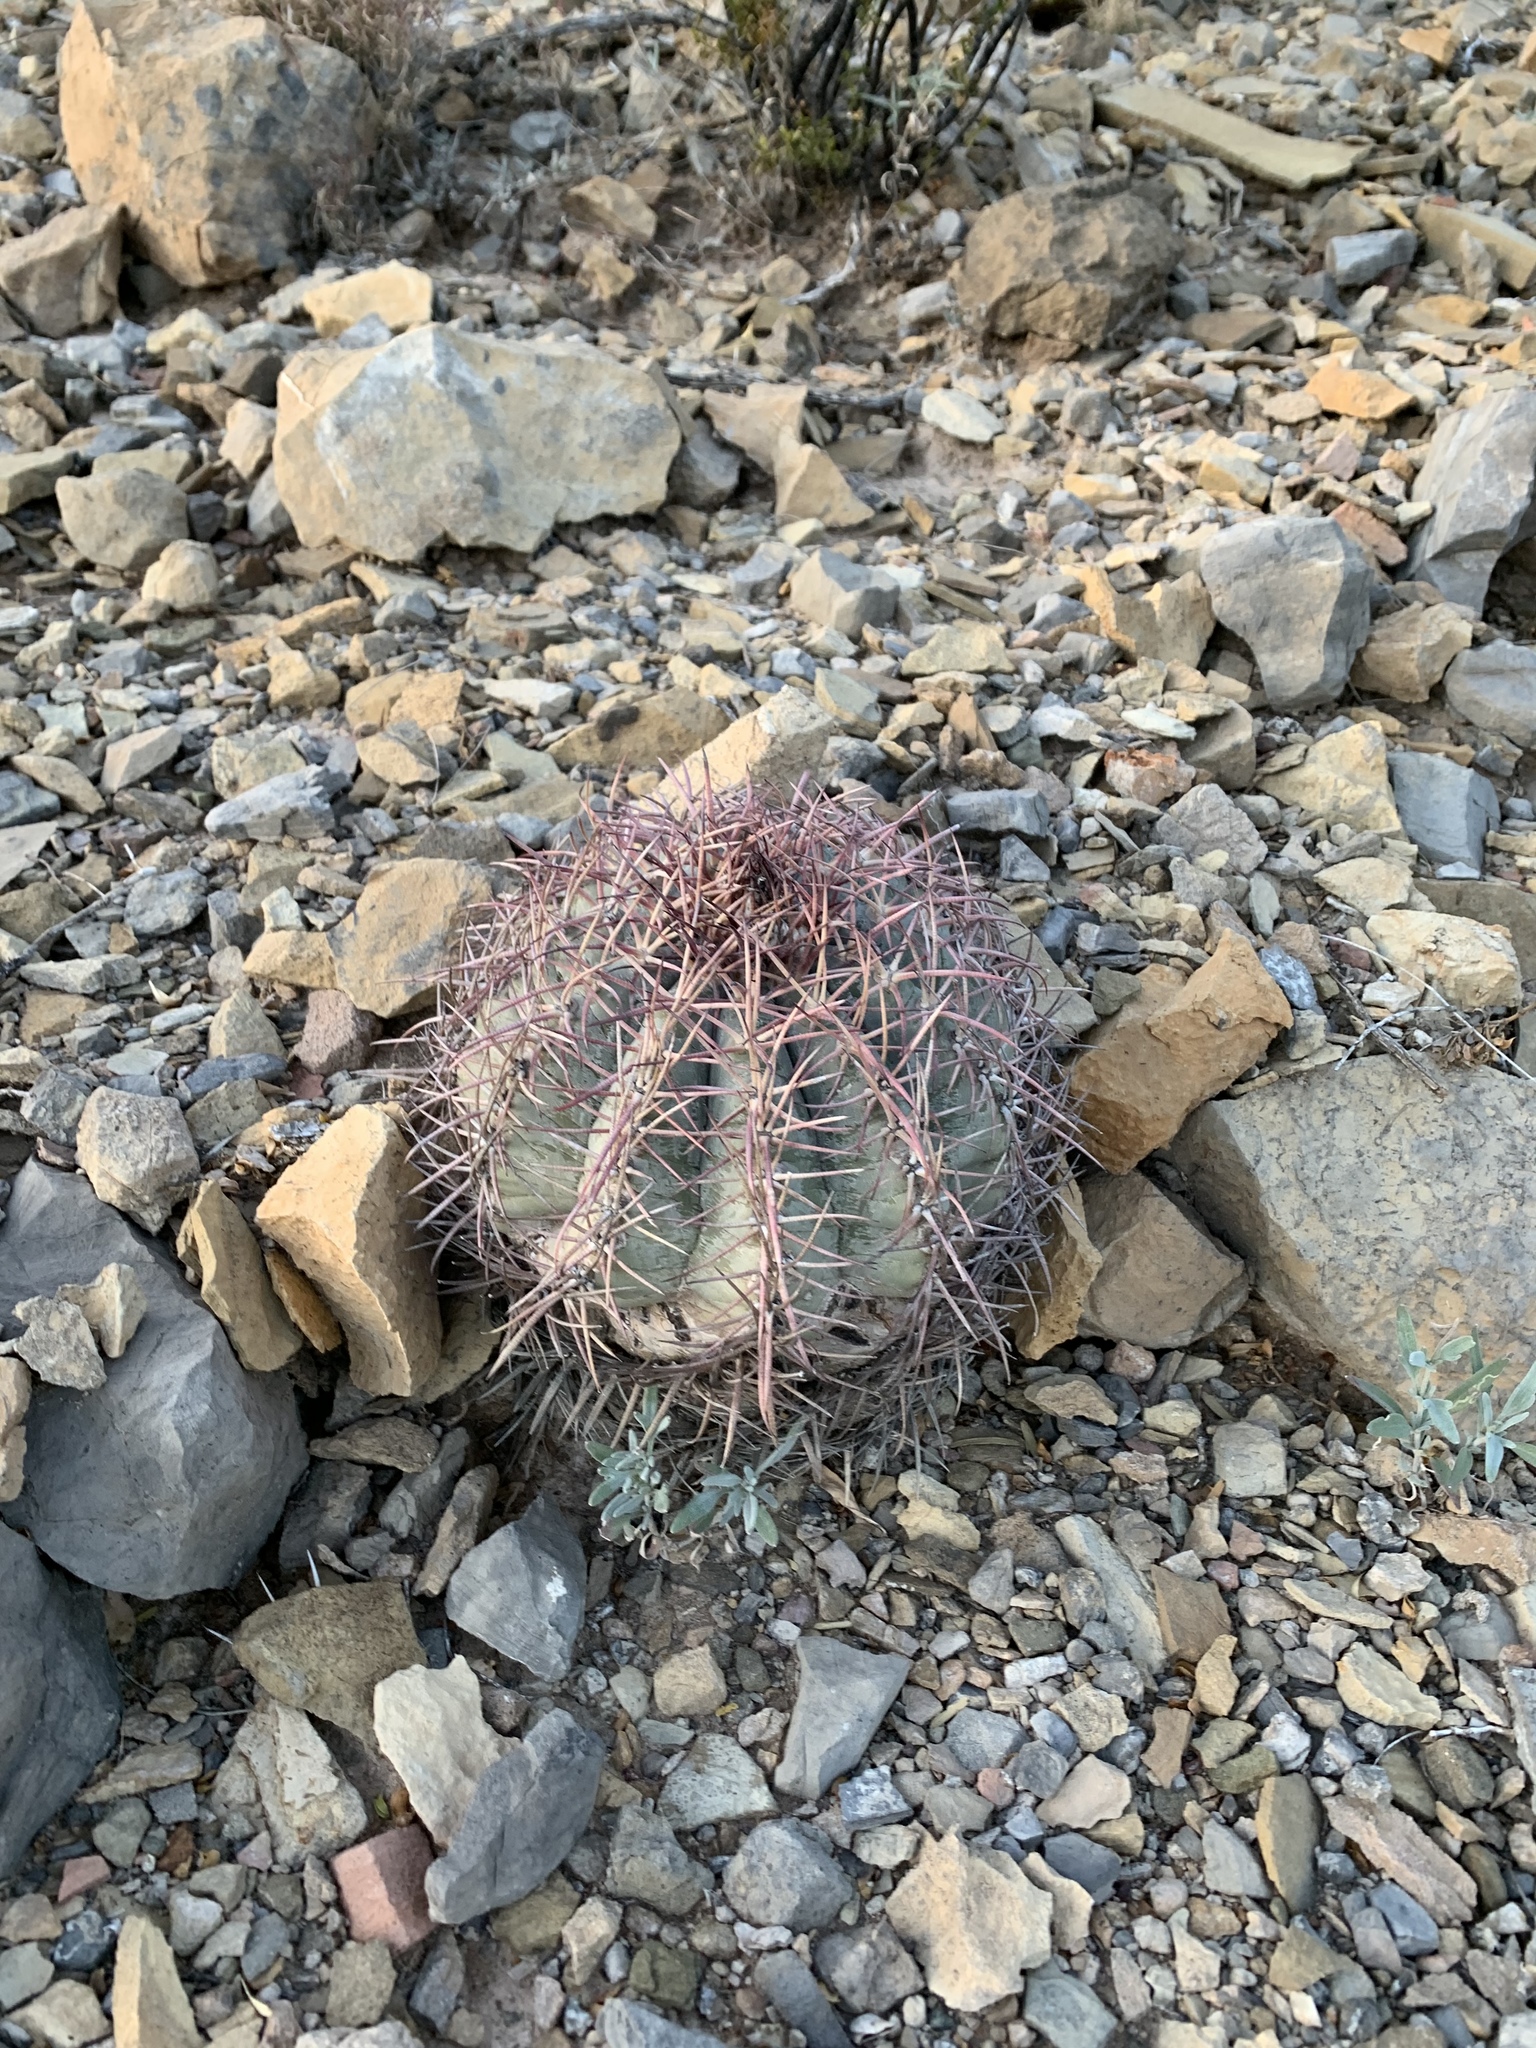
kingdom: Plantae
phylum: Tracheophyta
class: Magnoliopsida
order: Caryophyllales
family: Cactaceae
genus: Echinocactus
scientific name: Echinocactus horizonthalonius
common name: Devilshead
